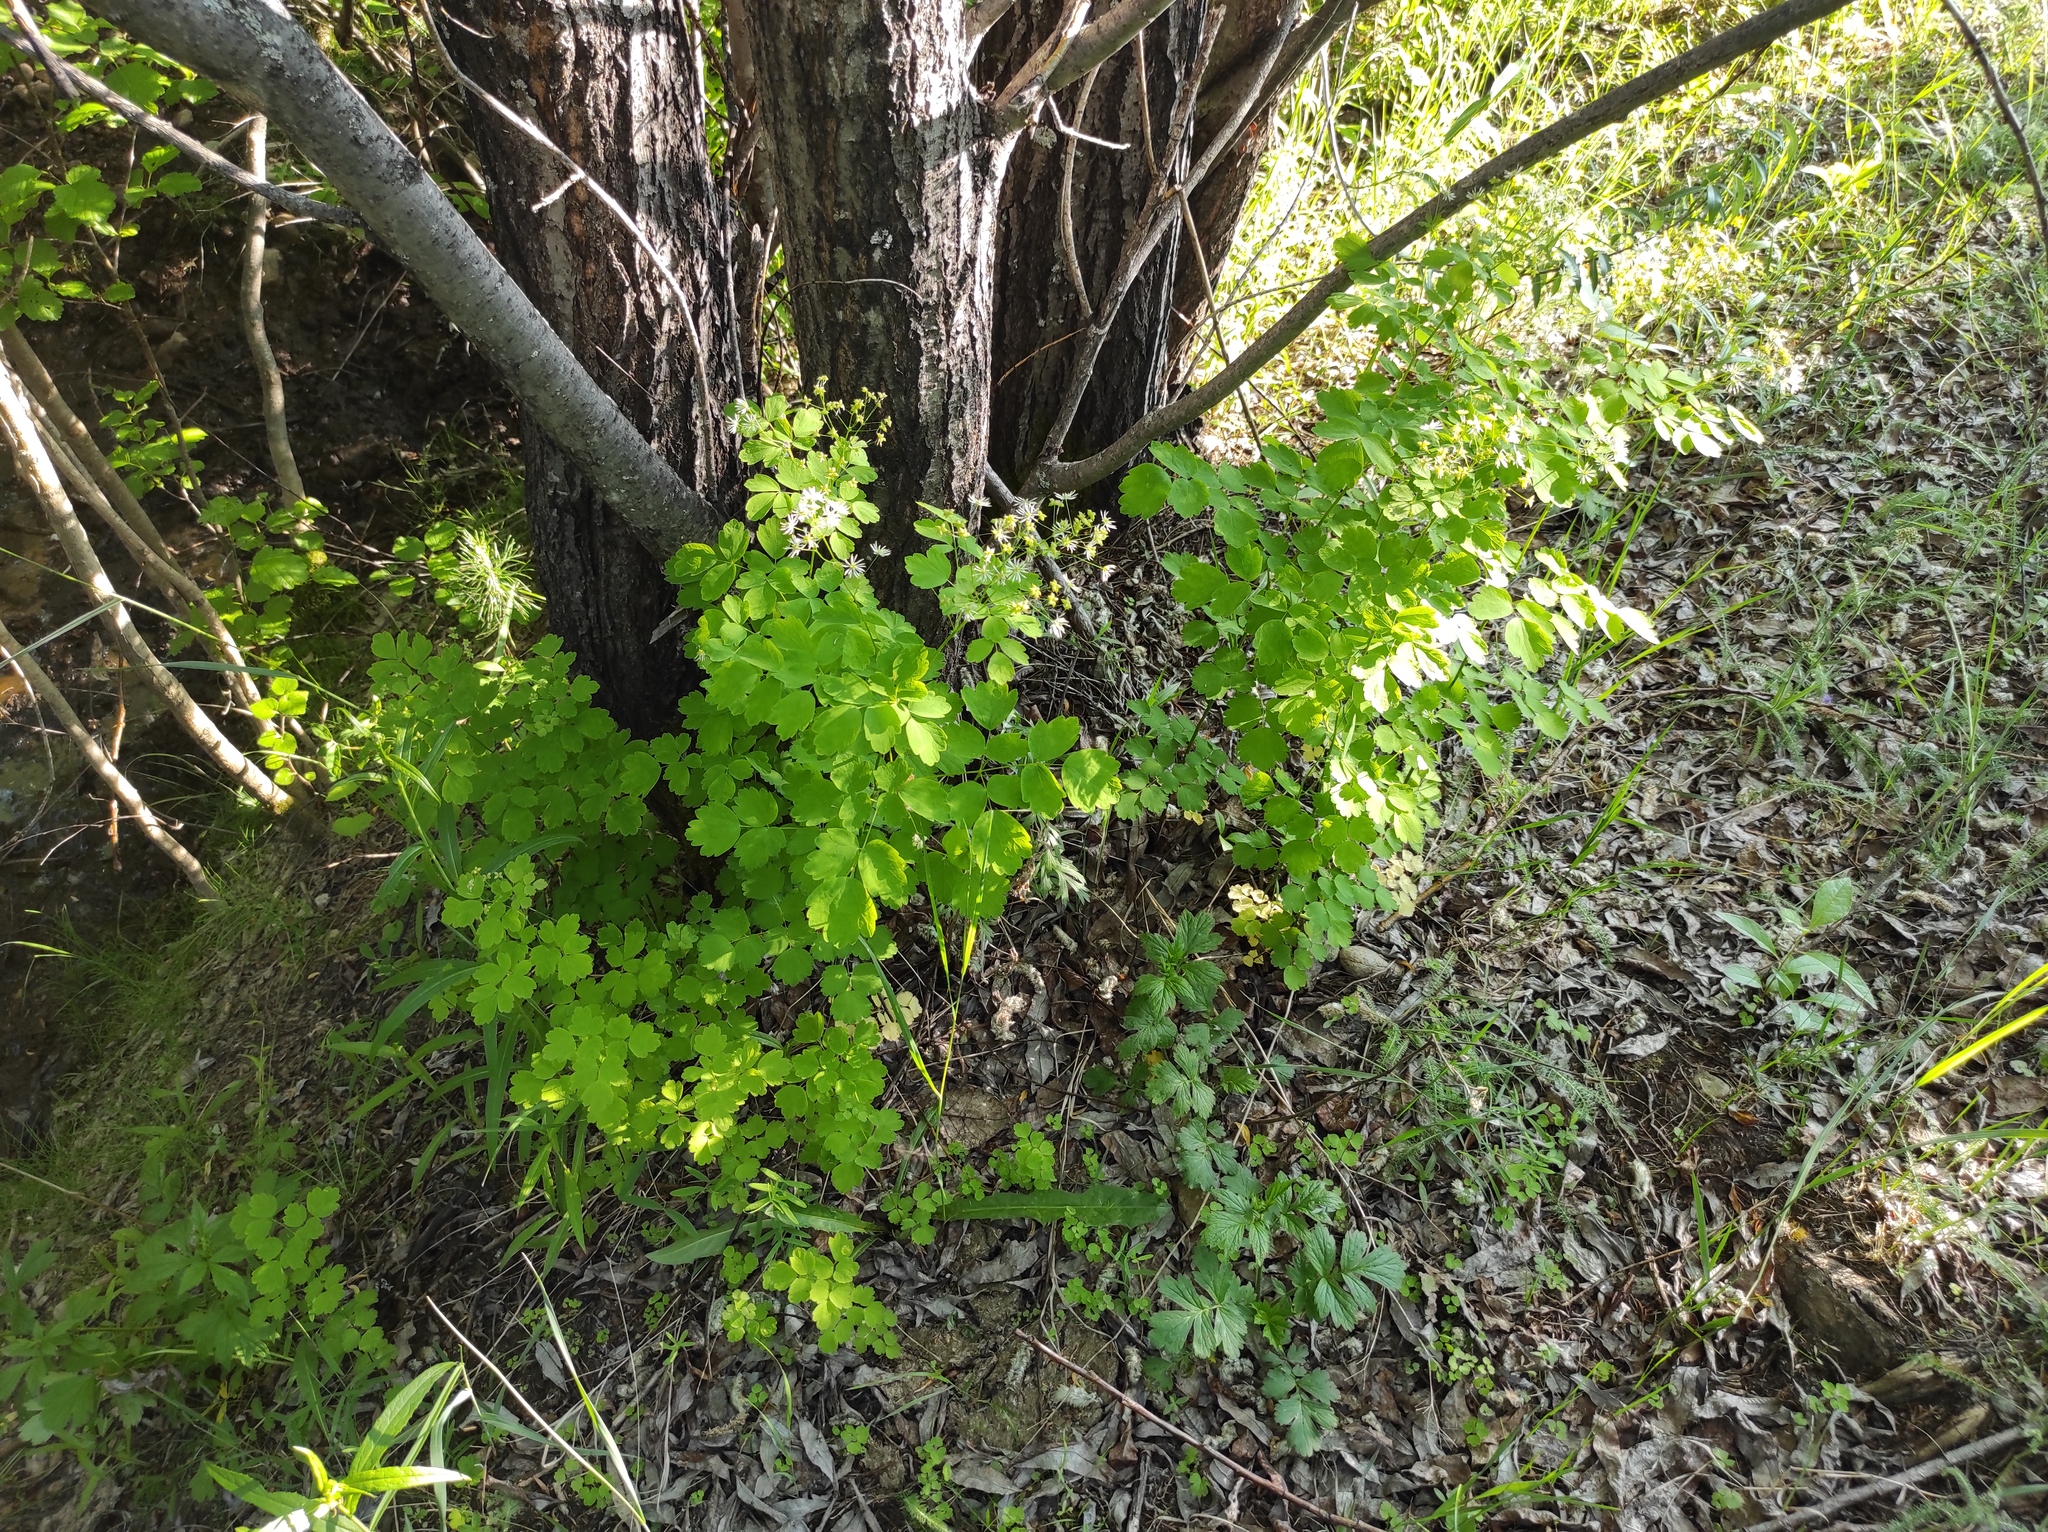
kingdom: Plantae
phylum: Tracheophyta
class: Magnoliopsida
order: Ranunculales
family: Ranunculaceae
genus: Thalictrum
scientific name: Thalictrum baicalense
